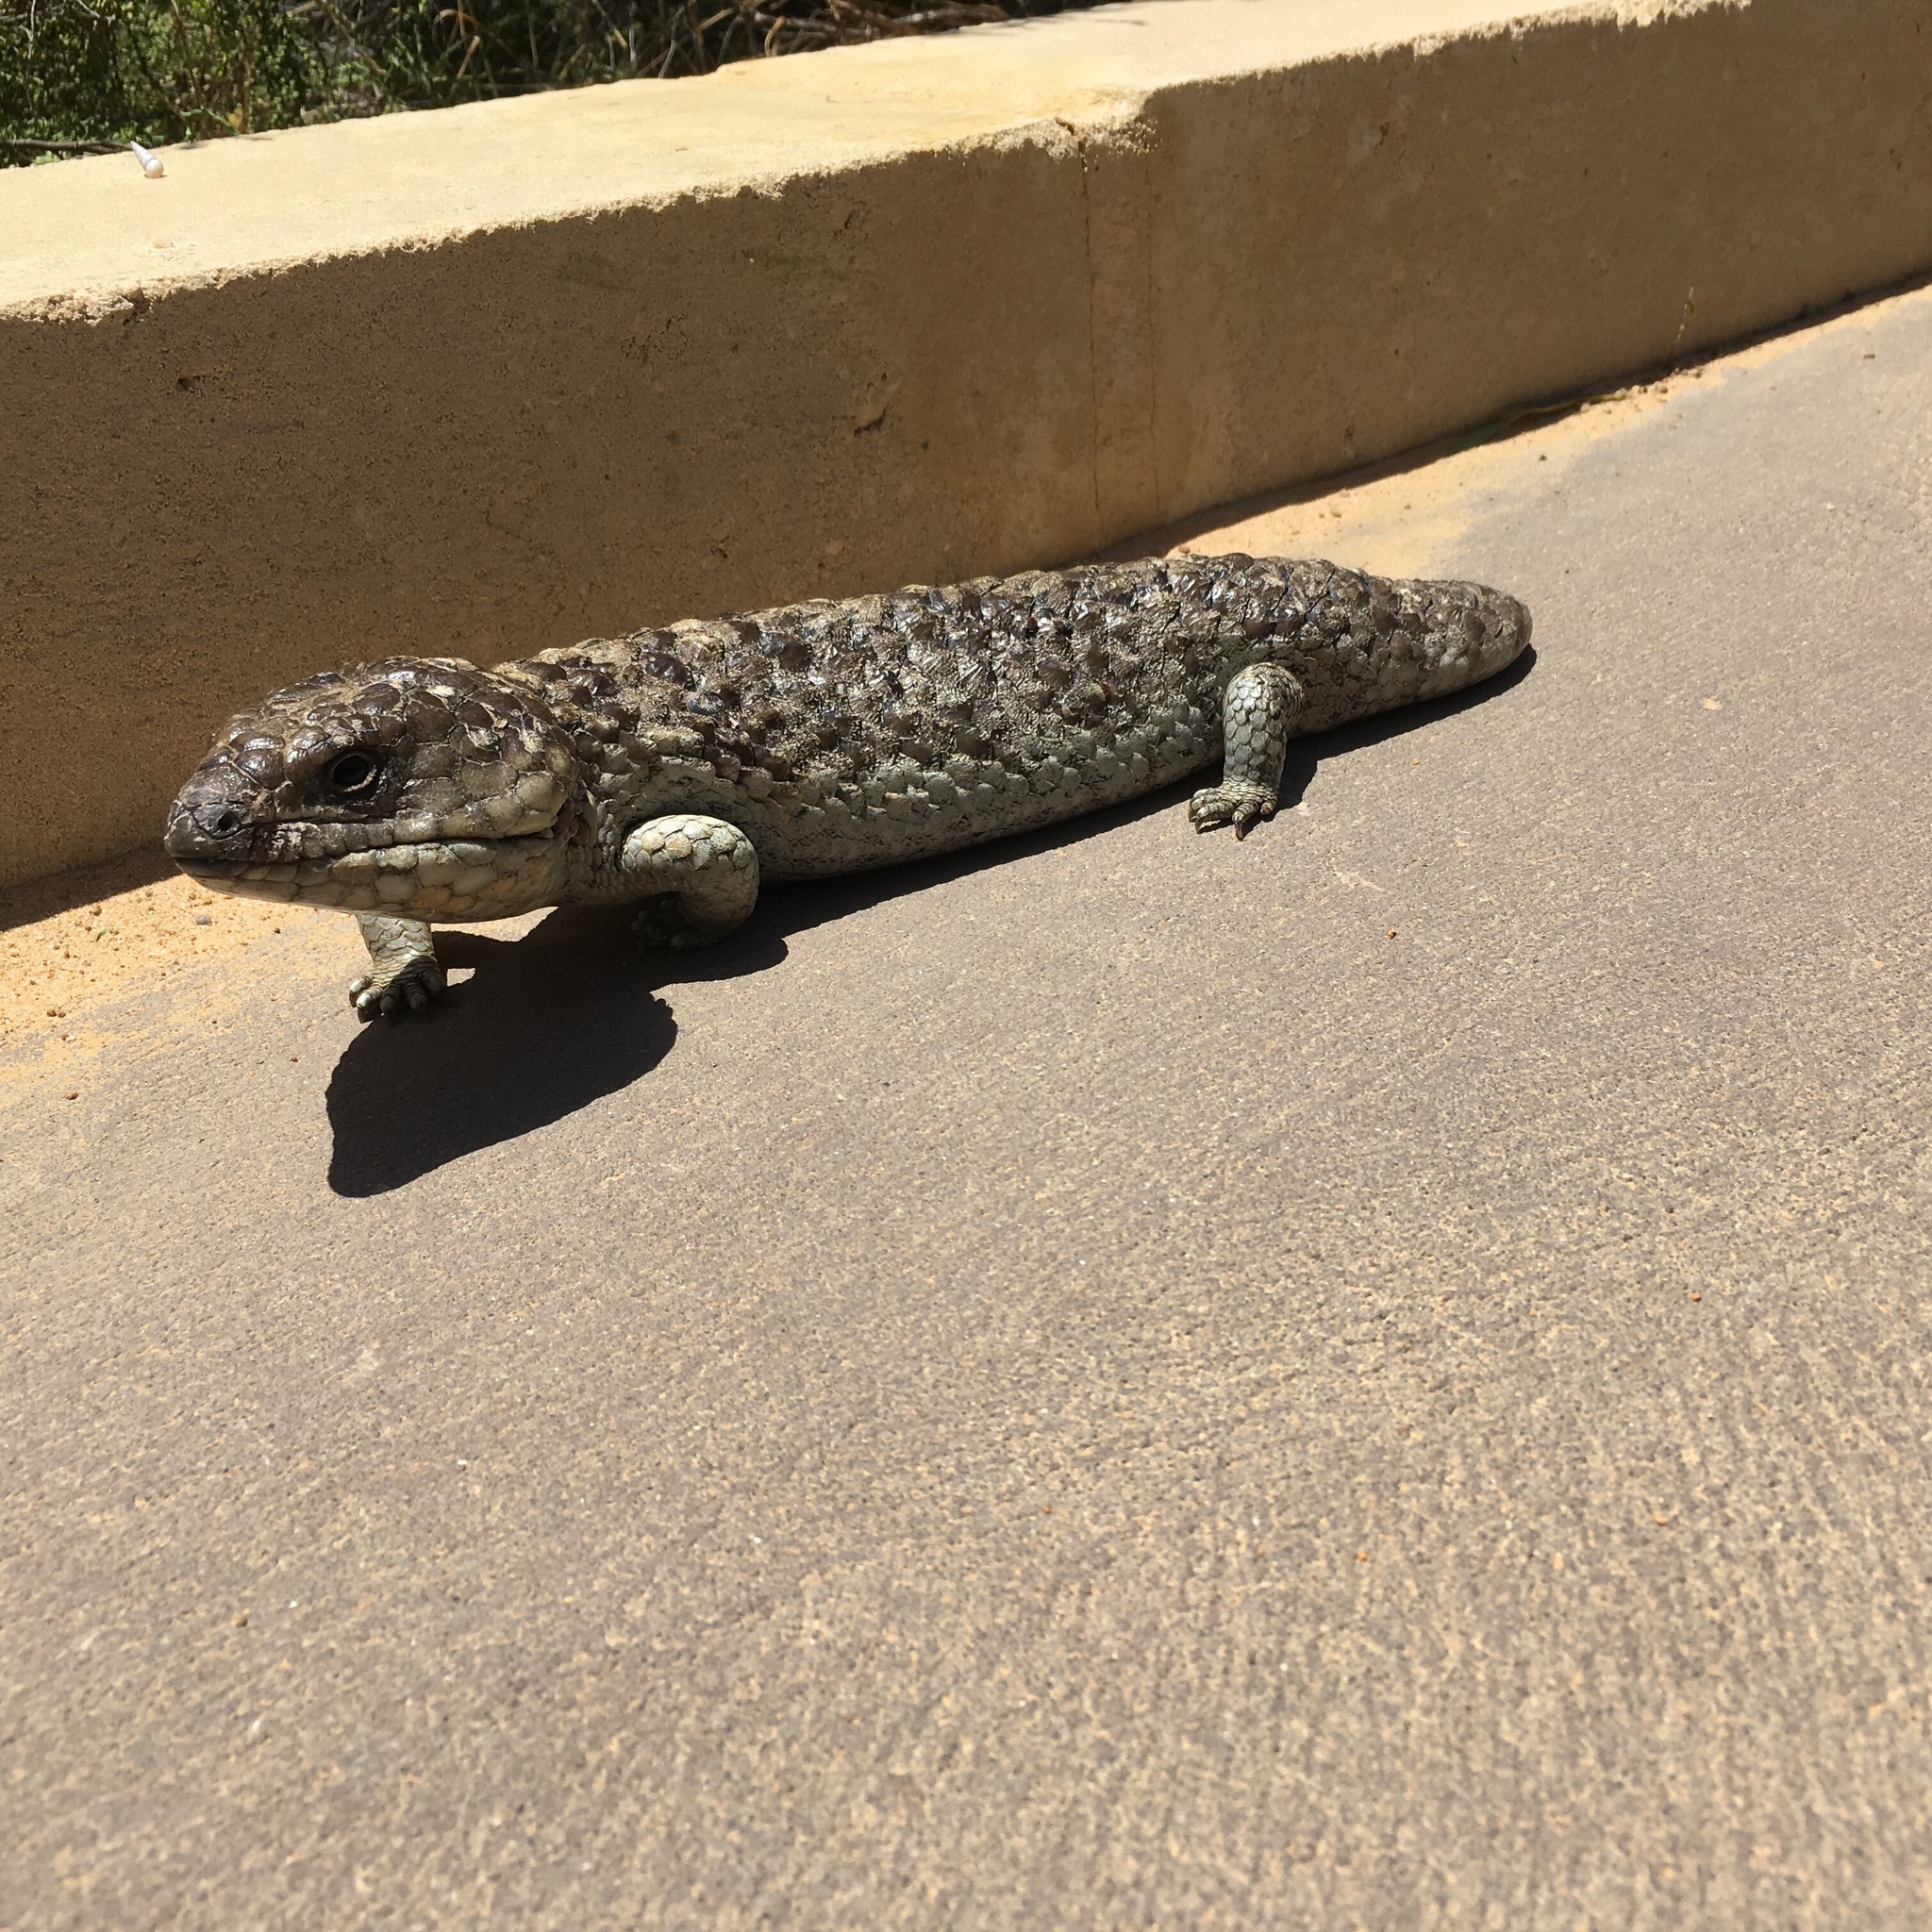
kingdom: Animalia
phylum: Chordata
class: Squamata
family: Scincidae
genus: Tiliqua
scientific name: Tiliqua rugosa
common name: Pinecone lizard
